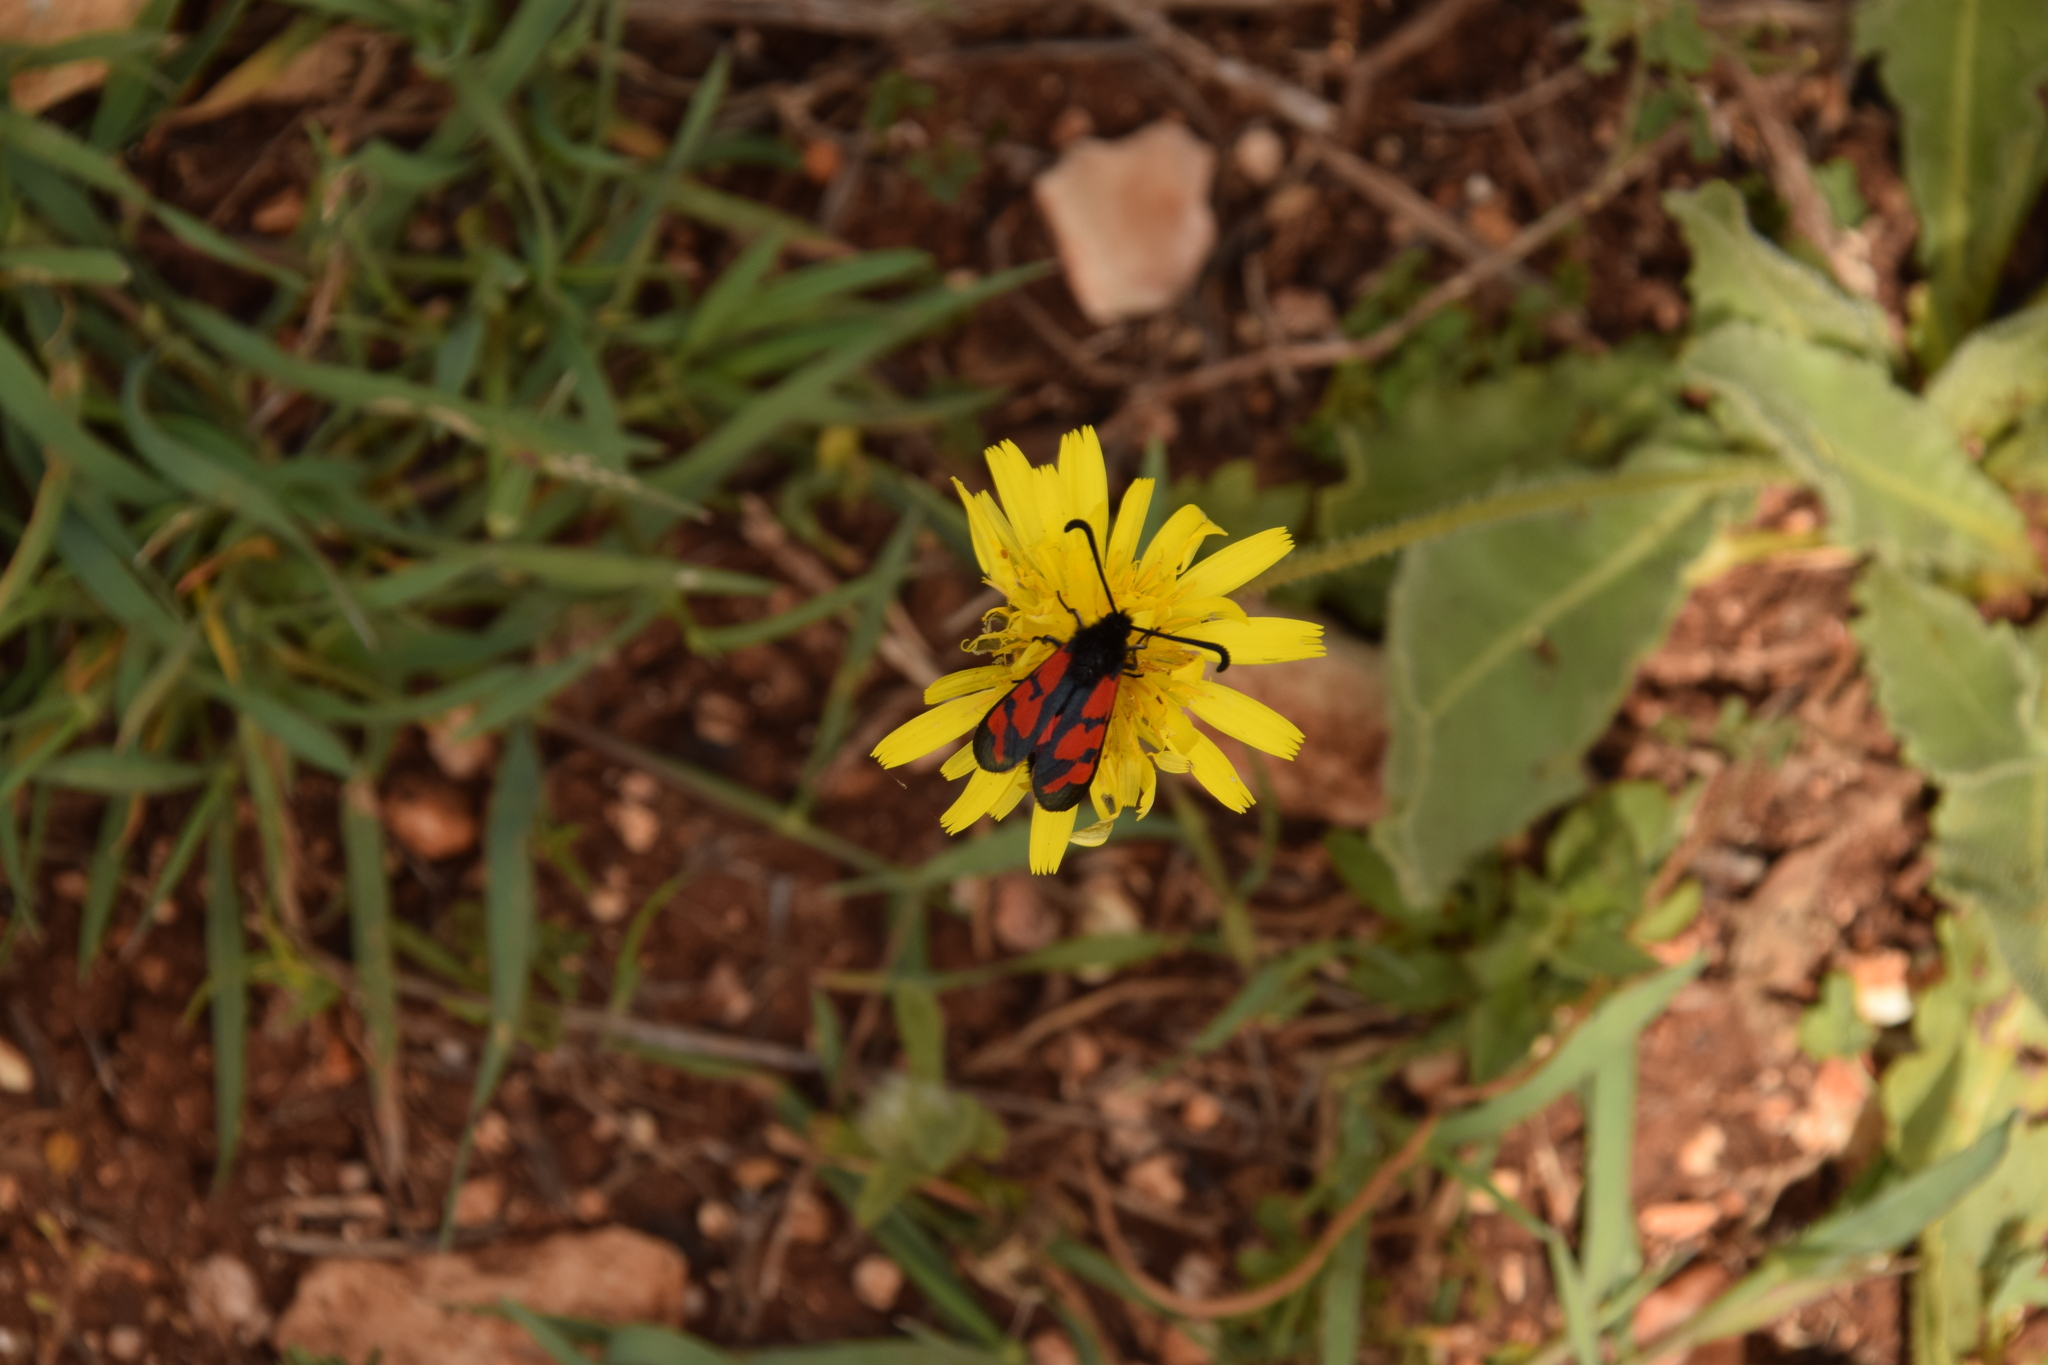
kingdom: Animalia
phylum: Arthropoda
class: Insecta
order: Lepidoptera
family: Zygaenidae
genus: Zygaena
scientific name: Zygaena graslini
